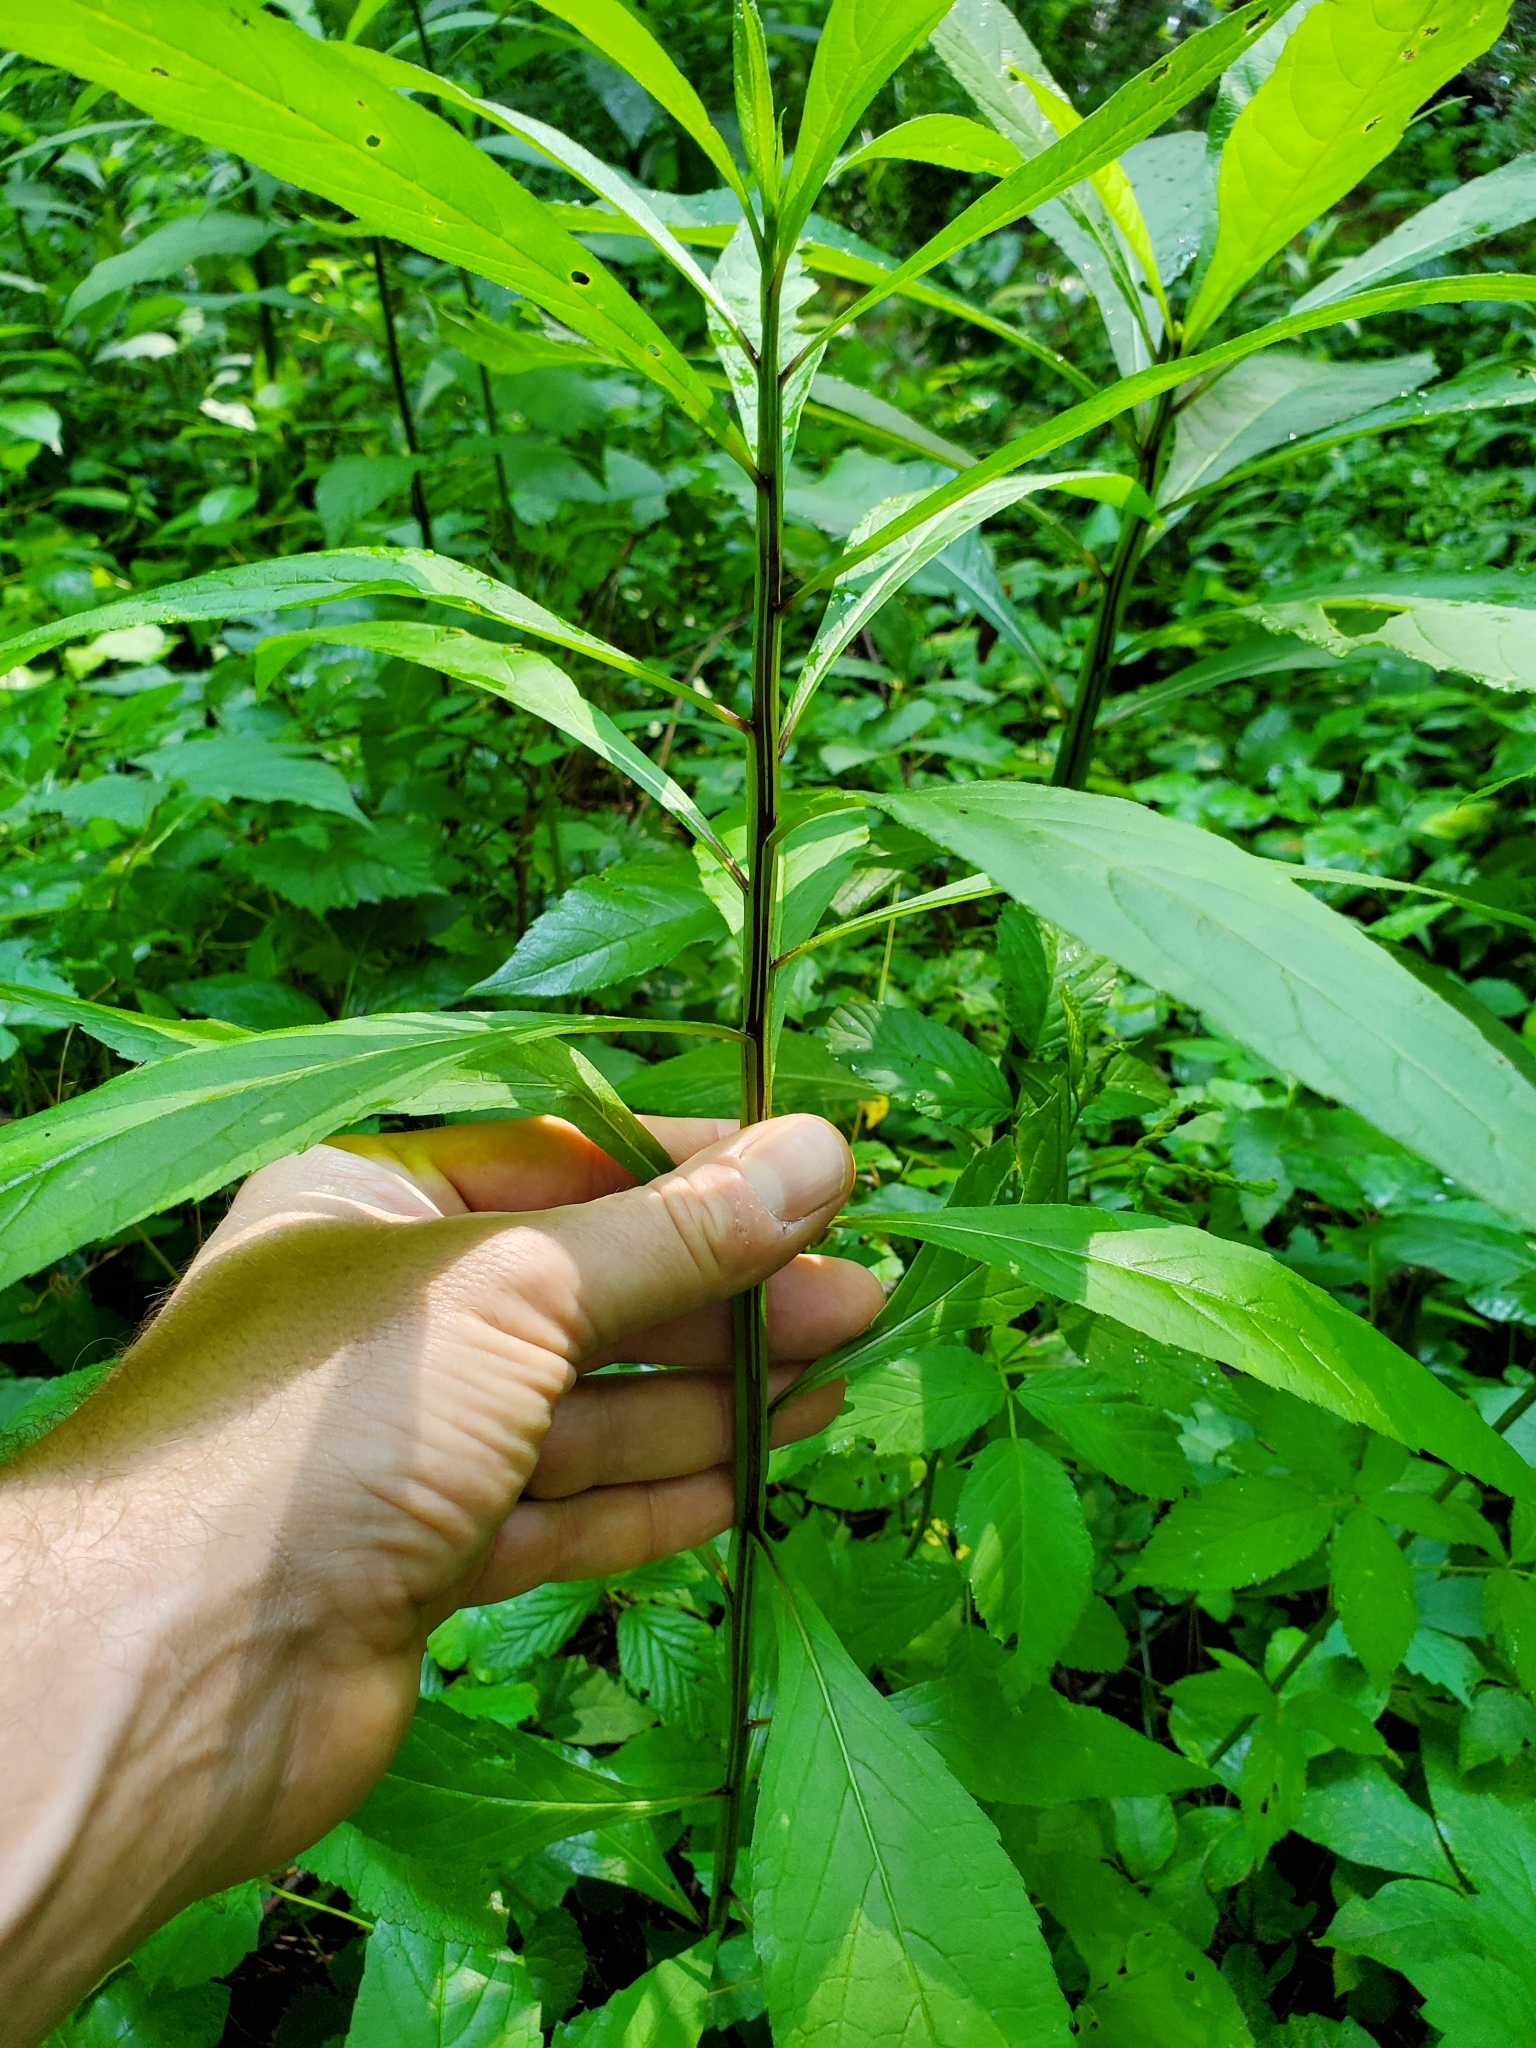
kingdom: Plantae
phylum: Tracheophyta
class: Magnoliopsida
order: Asterales
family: Asteraceae
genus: Verbesina
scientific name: Verbesina alternifolia
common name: Wingstem
